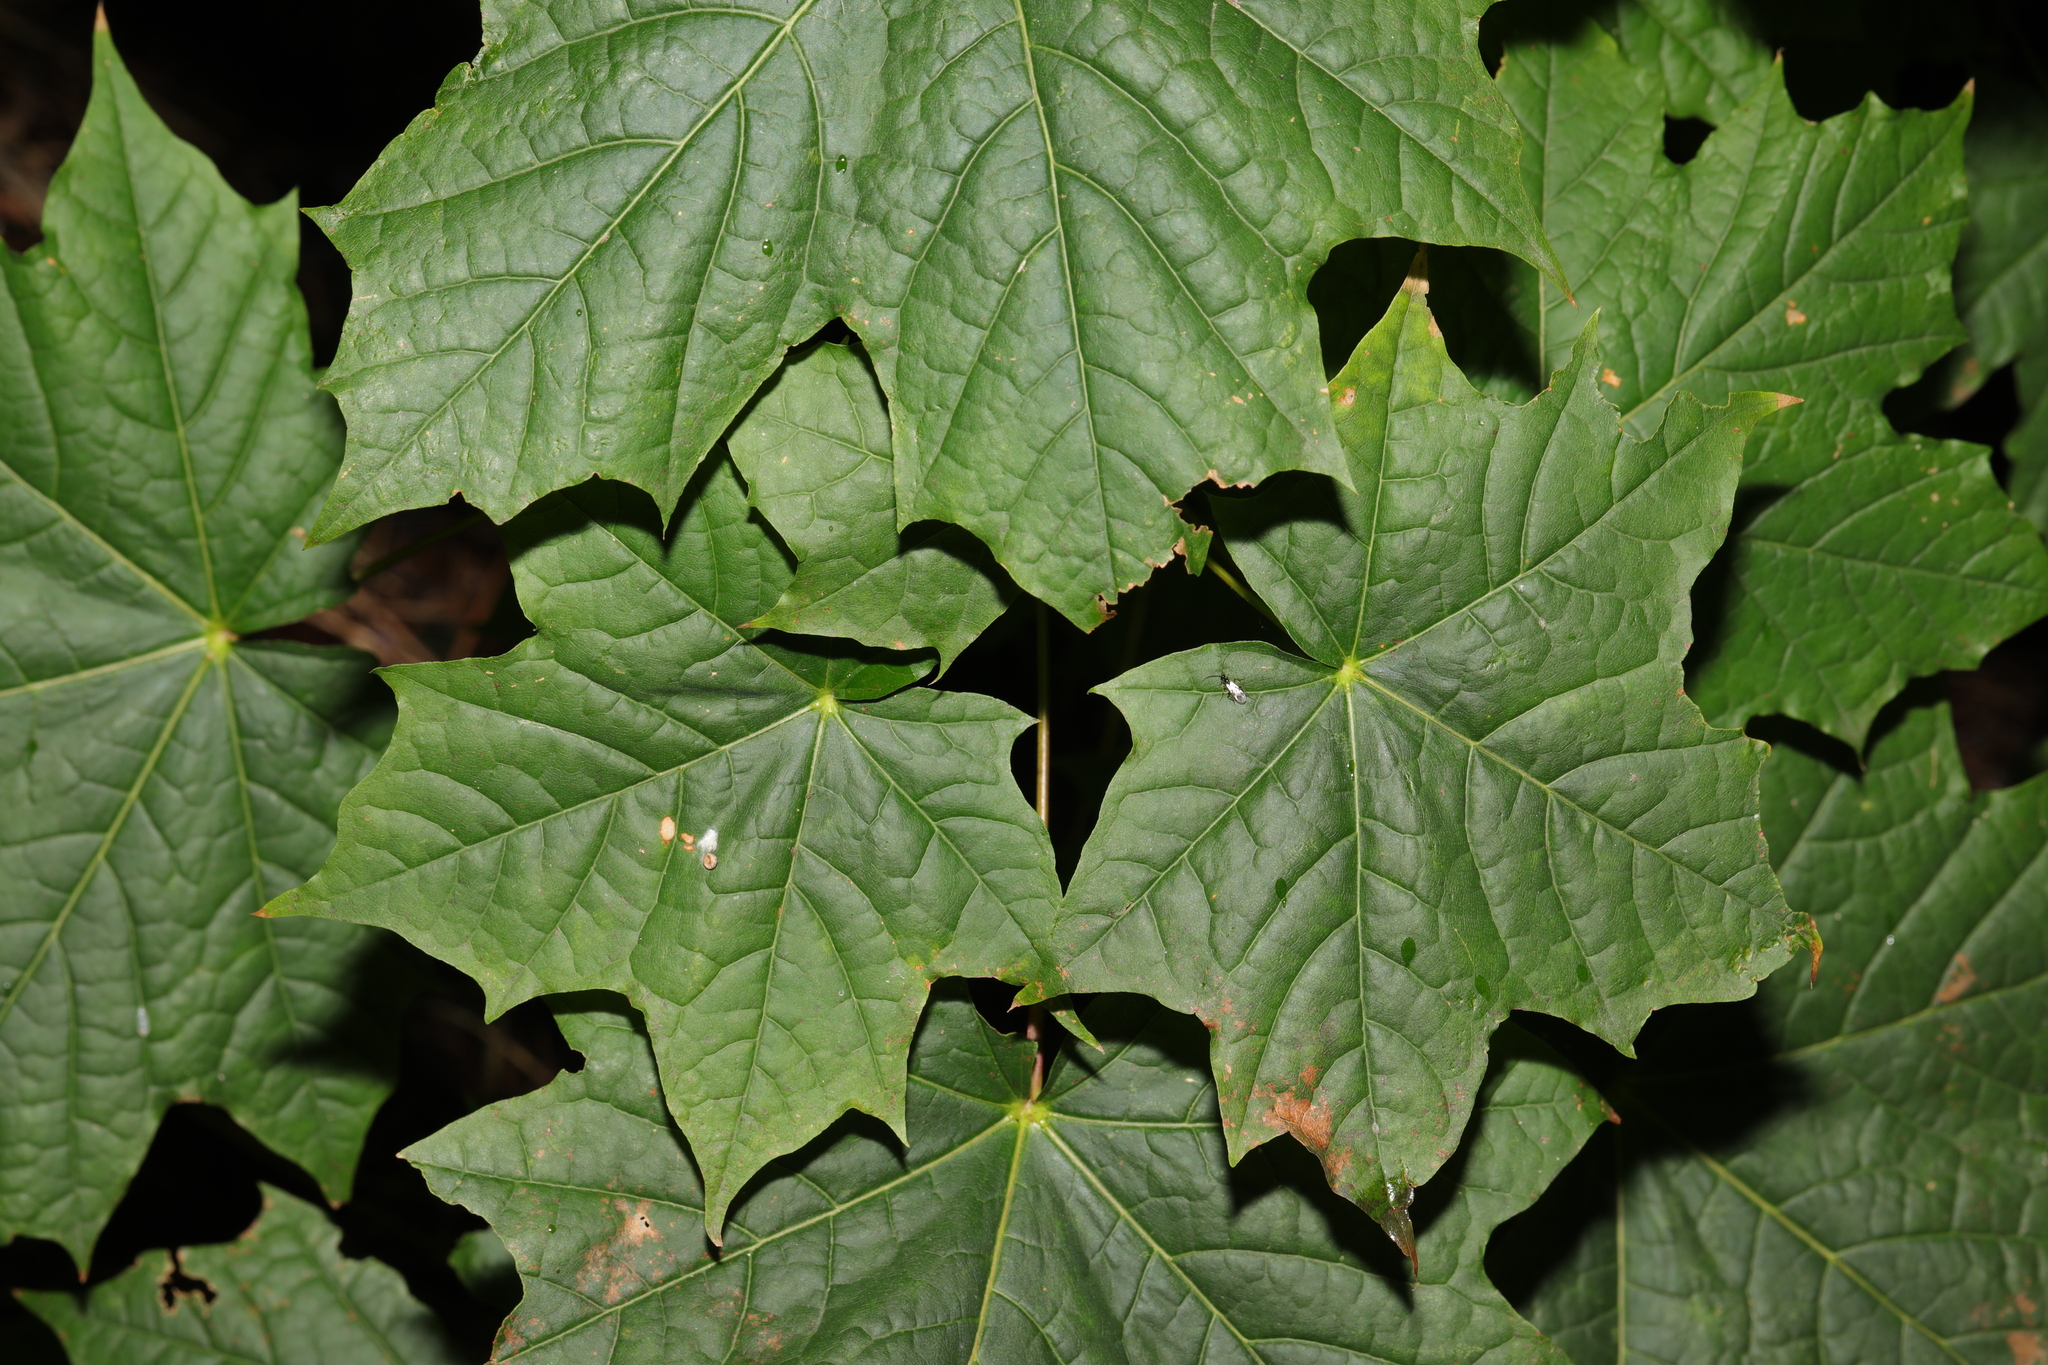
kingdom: Plantae
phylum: Tracheophyta
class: Magnoliopsida
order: Sapindales
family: Sapindaceae
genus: Acer
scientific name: Acer platanoides
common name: Norway maple
